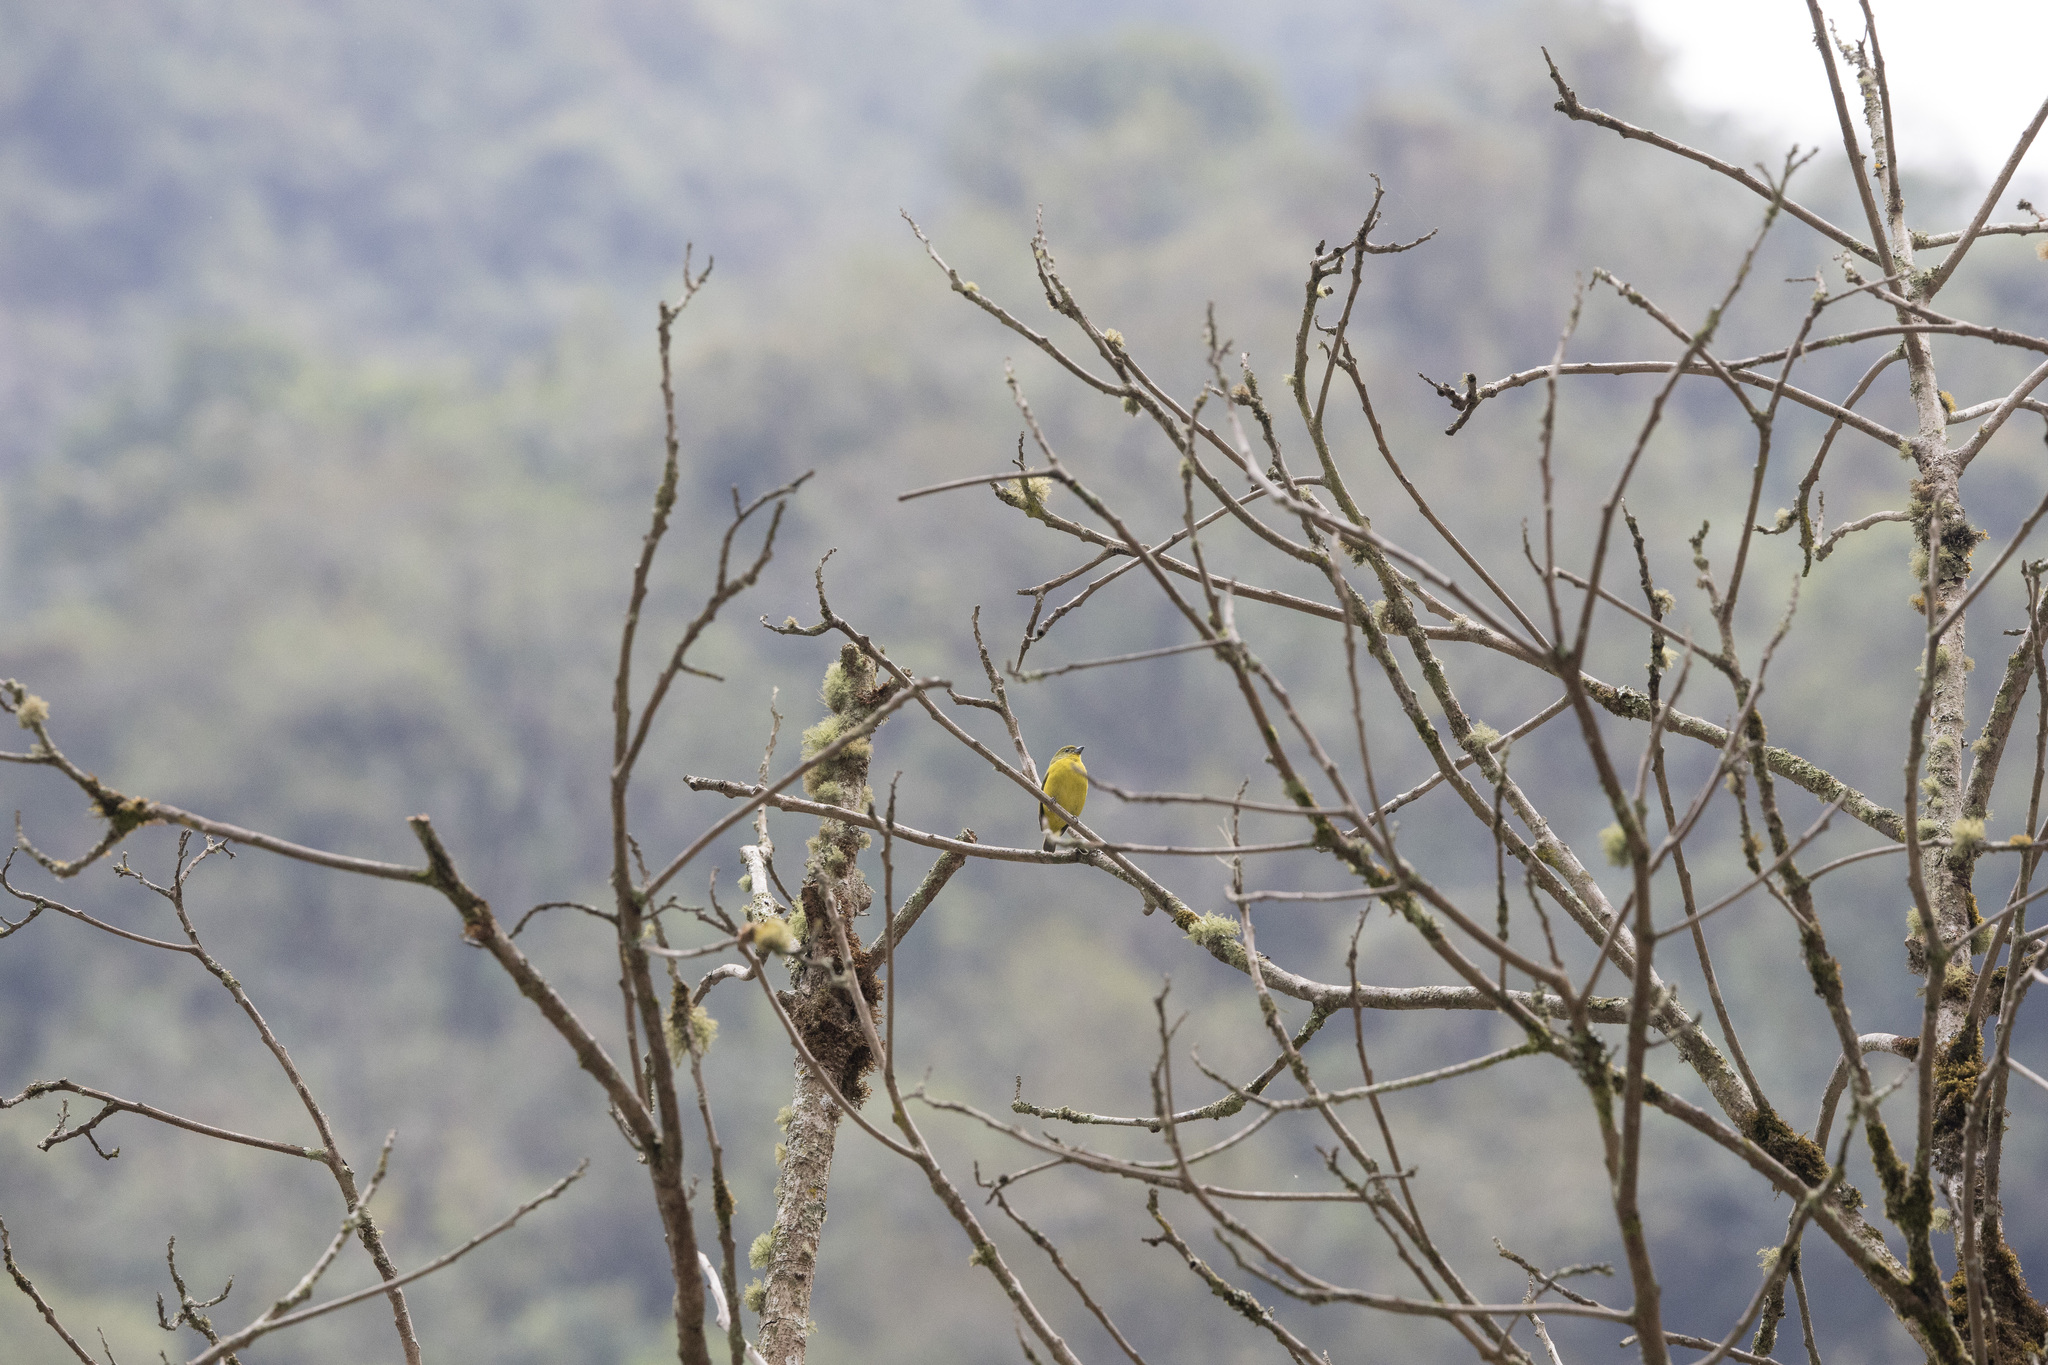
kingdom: Animalia
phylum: Chordata
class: Aves
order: Passeriformes
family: Fringillidae
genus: Euphonia
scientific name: Euphonia laniirostris
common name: Thick-billed euphonia
